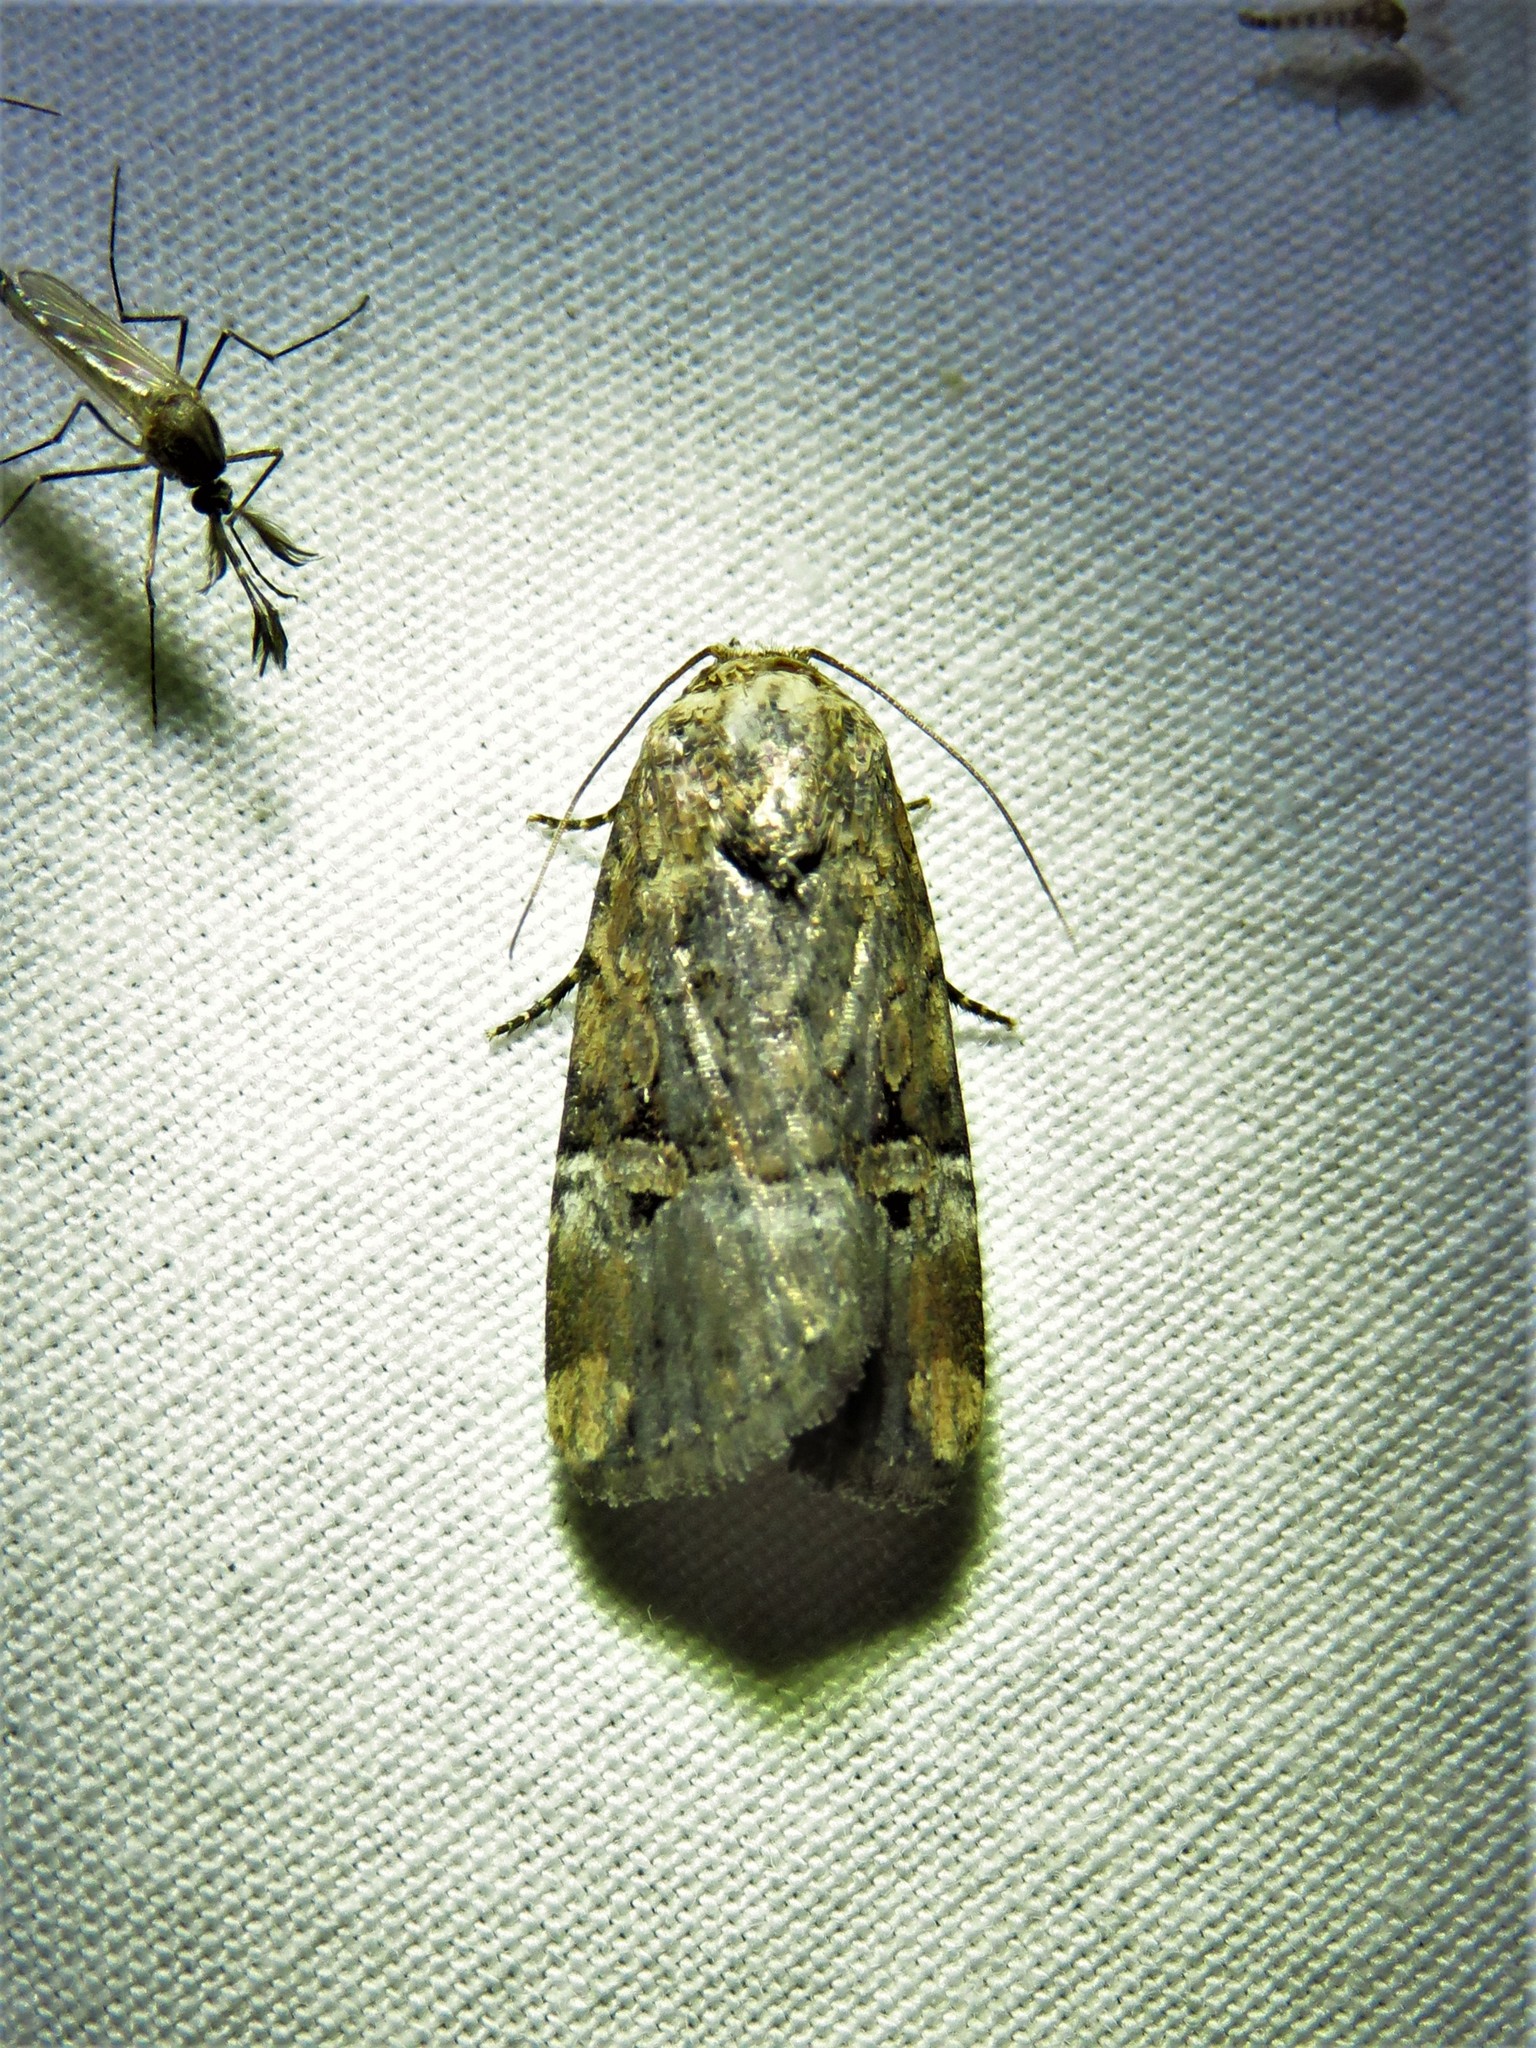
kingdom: Animalia
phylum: Arthropoda
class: Insecta
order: Lepidoptera
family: Noctuidae
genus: Elaphria
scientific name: Elaphria chalcedonia
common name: Chalcedony midget
